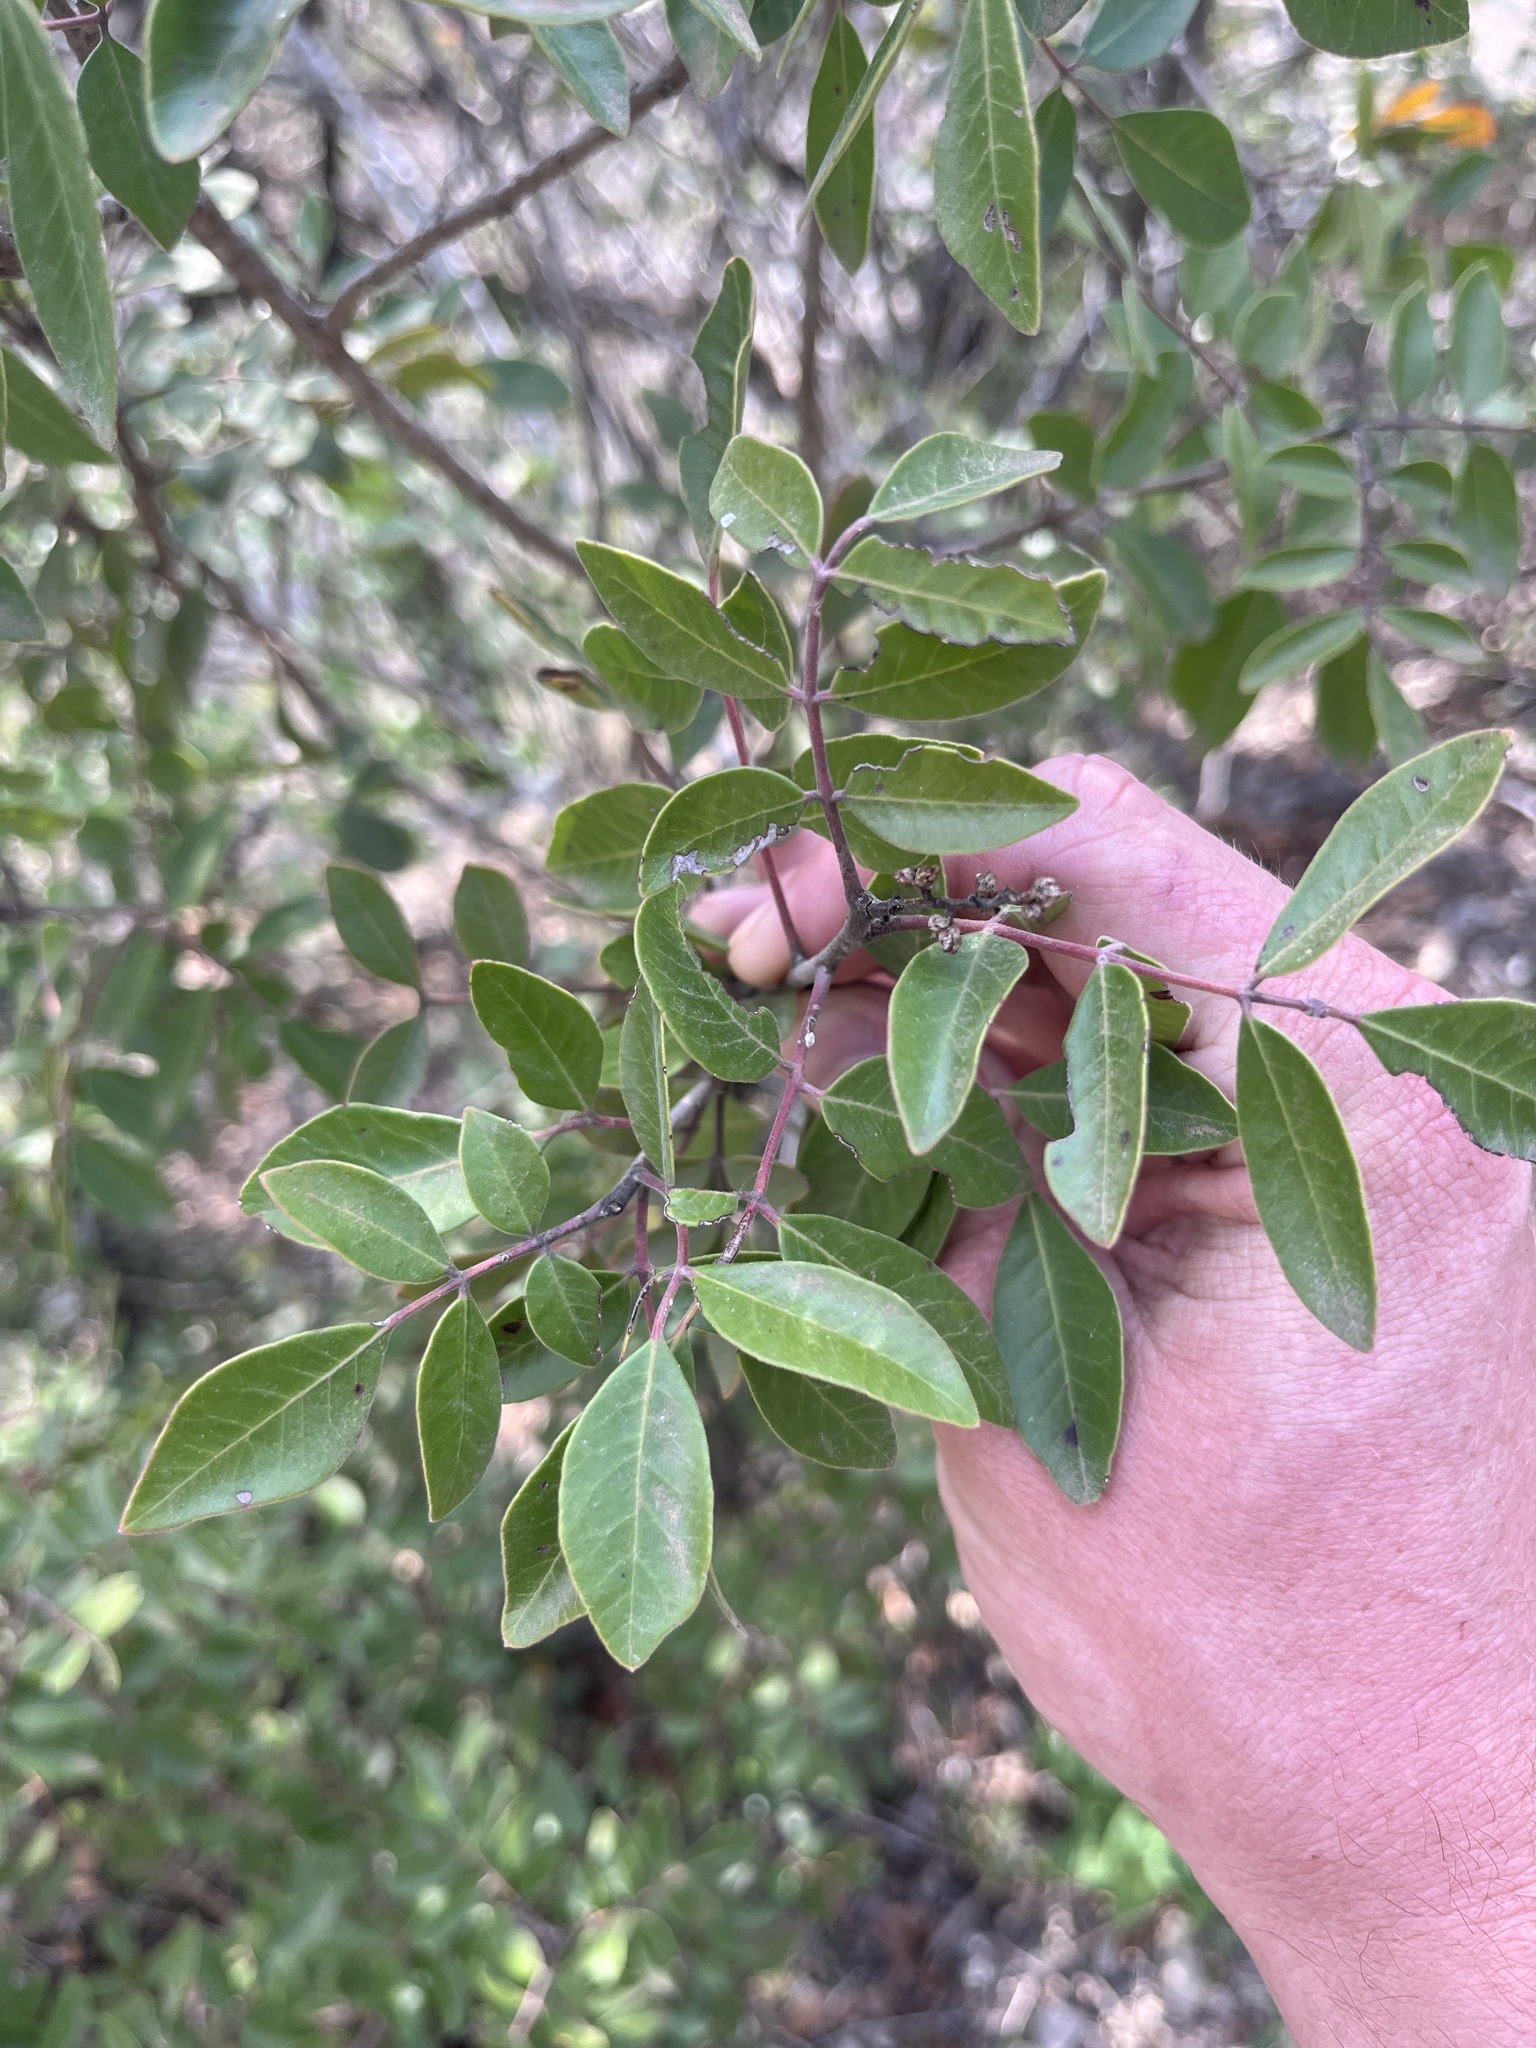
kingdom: Plantae
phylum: Tracheophyta
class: Magnoliopsida
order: Sapindales
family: Anacardiaceae
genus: Rhus
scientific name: Rhus virens
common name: Evergreen sumac
